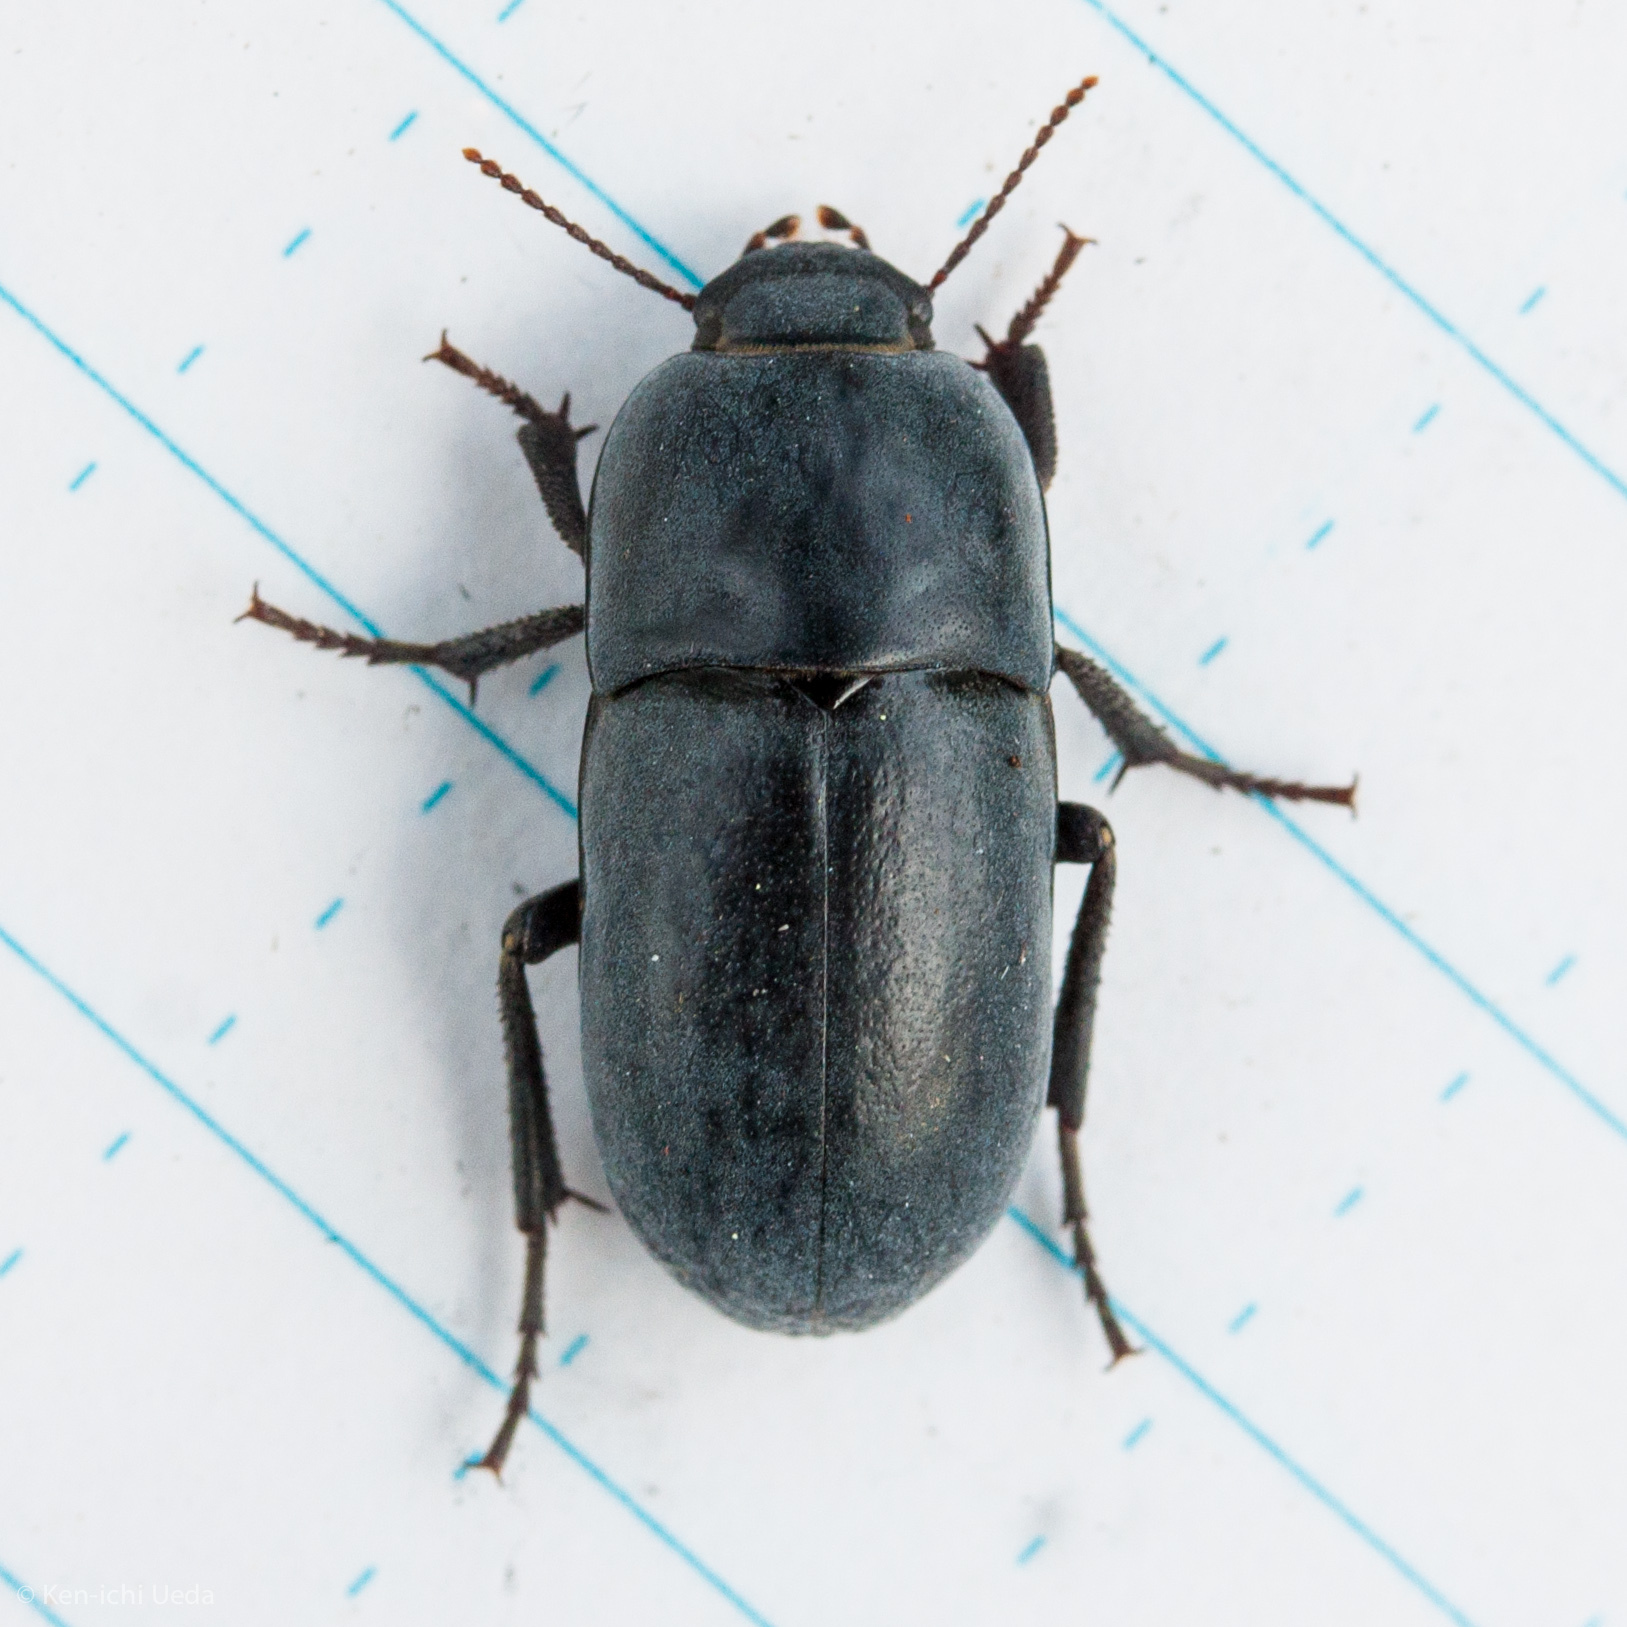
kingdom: Animalia
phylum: Arthropoda
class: Insecta
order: Coleoptera
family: Tenebrionidae
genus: Coniontis
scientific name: Coniontis
